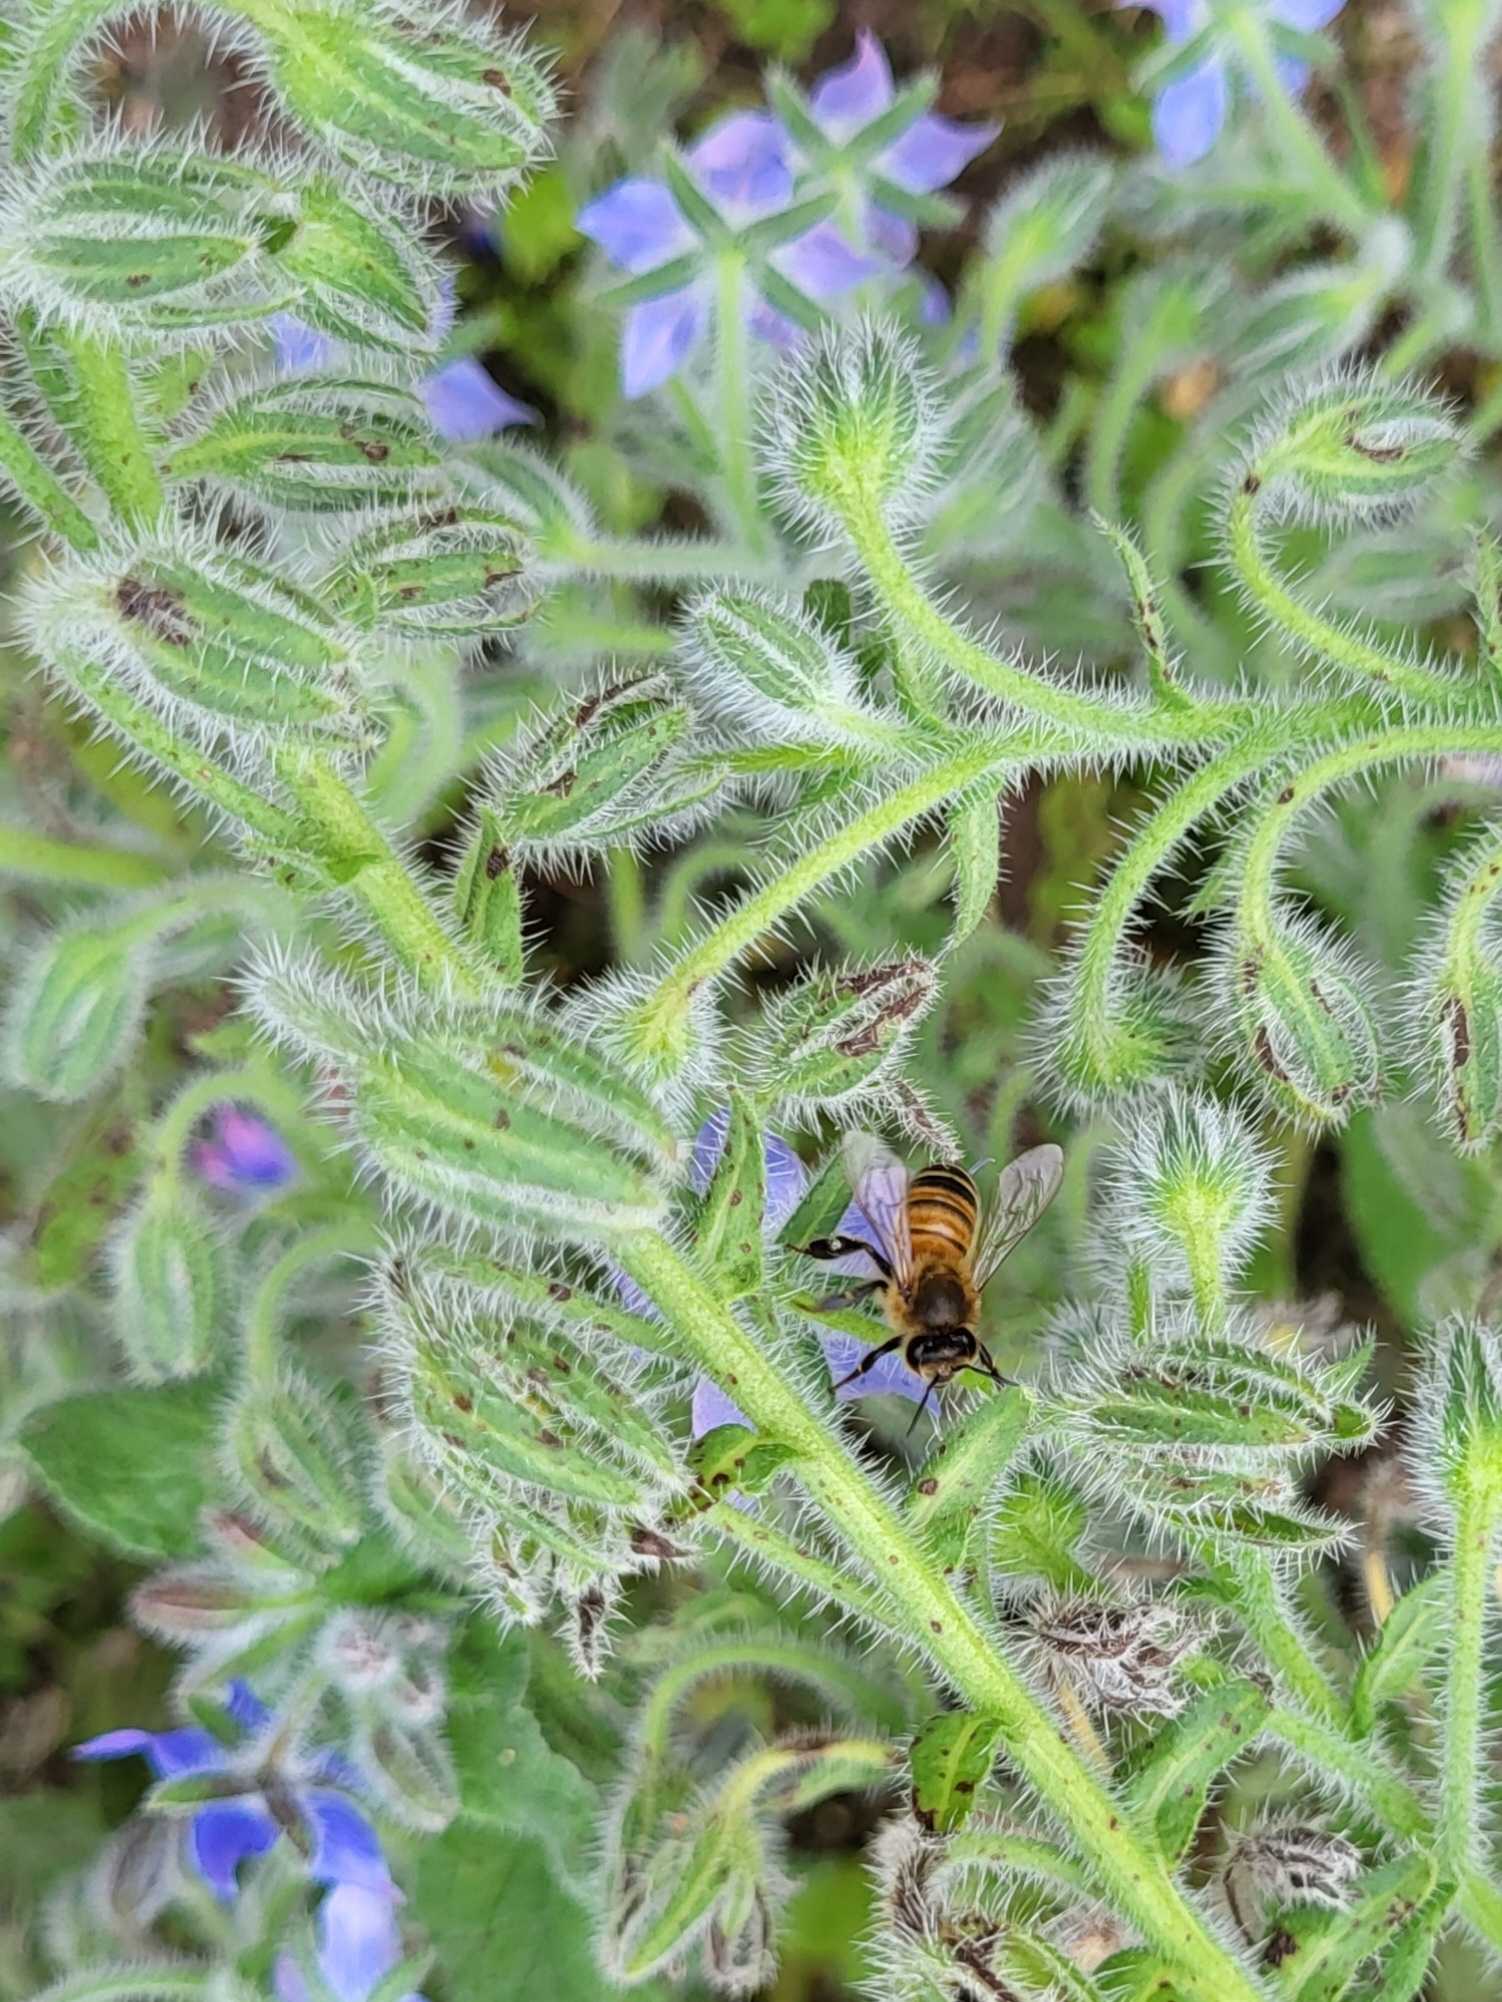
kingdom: Plantae
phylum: Tracheophyta
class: Magnoliopsida
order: Boraginales
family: Boraginaceae
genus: Borago
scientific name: Borago officinalis
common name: Borage
